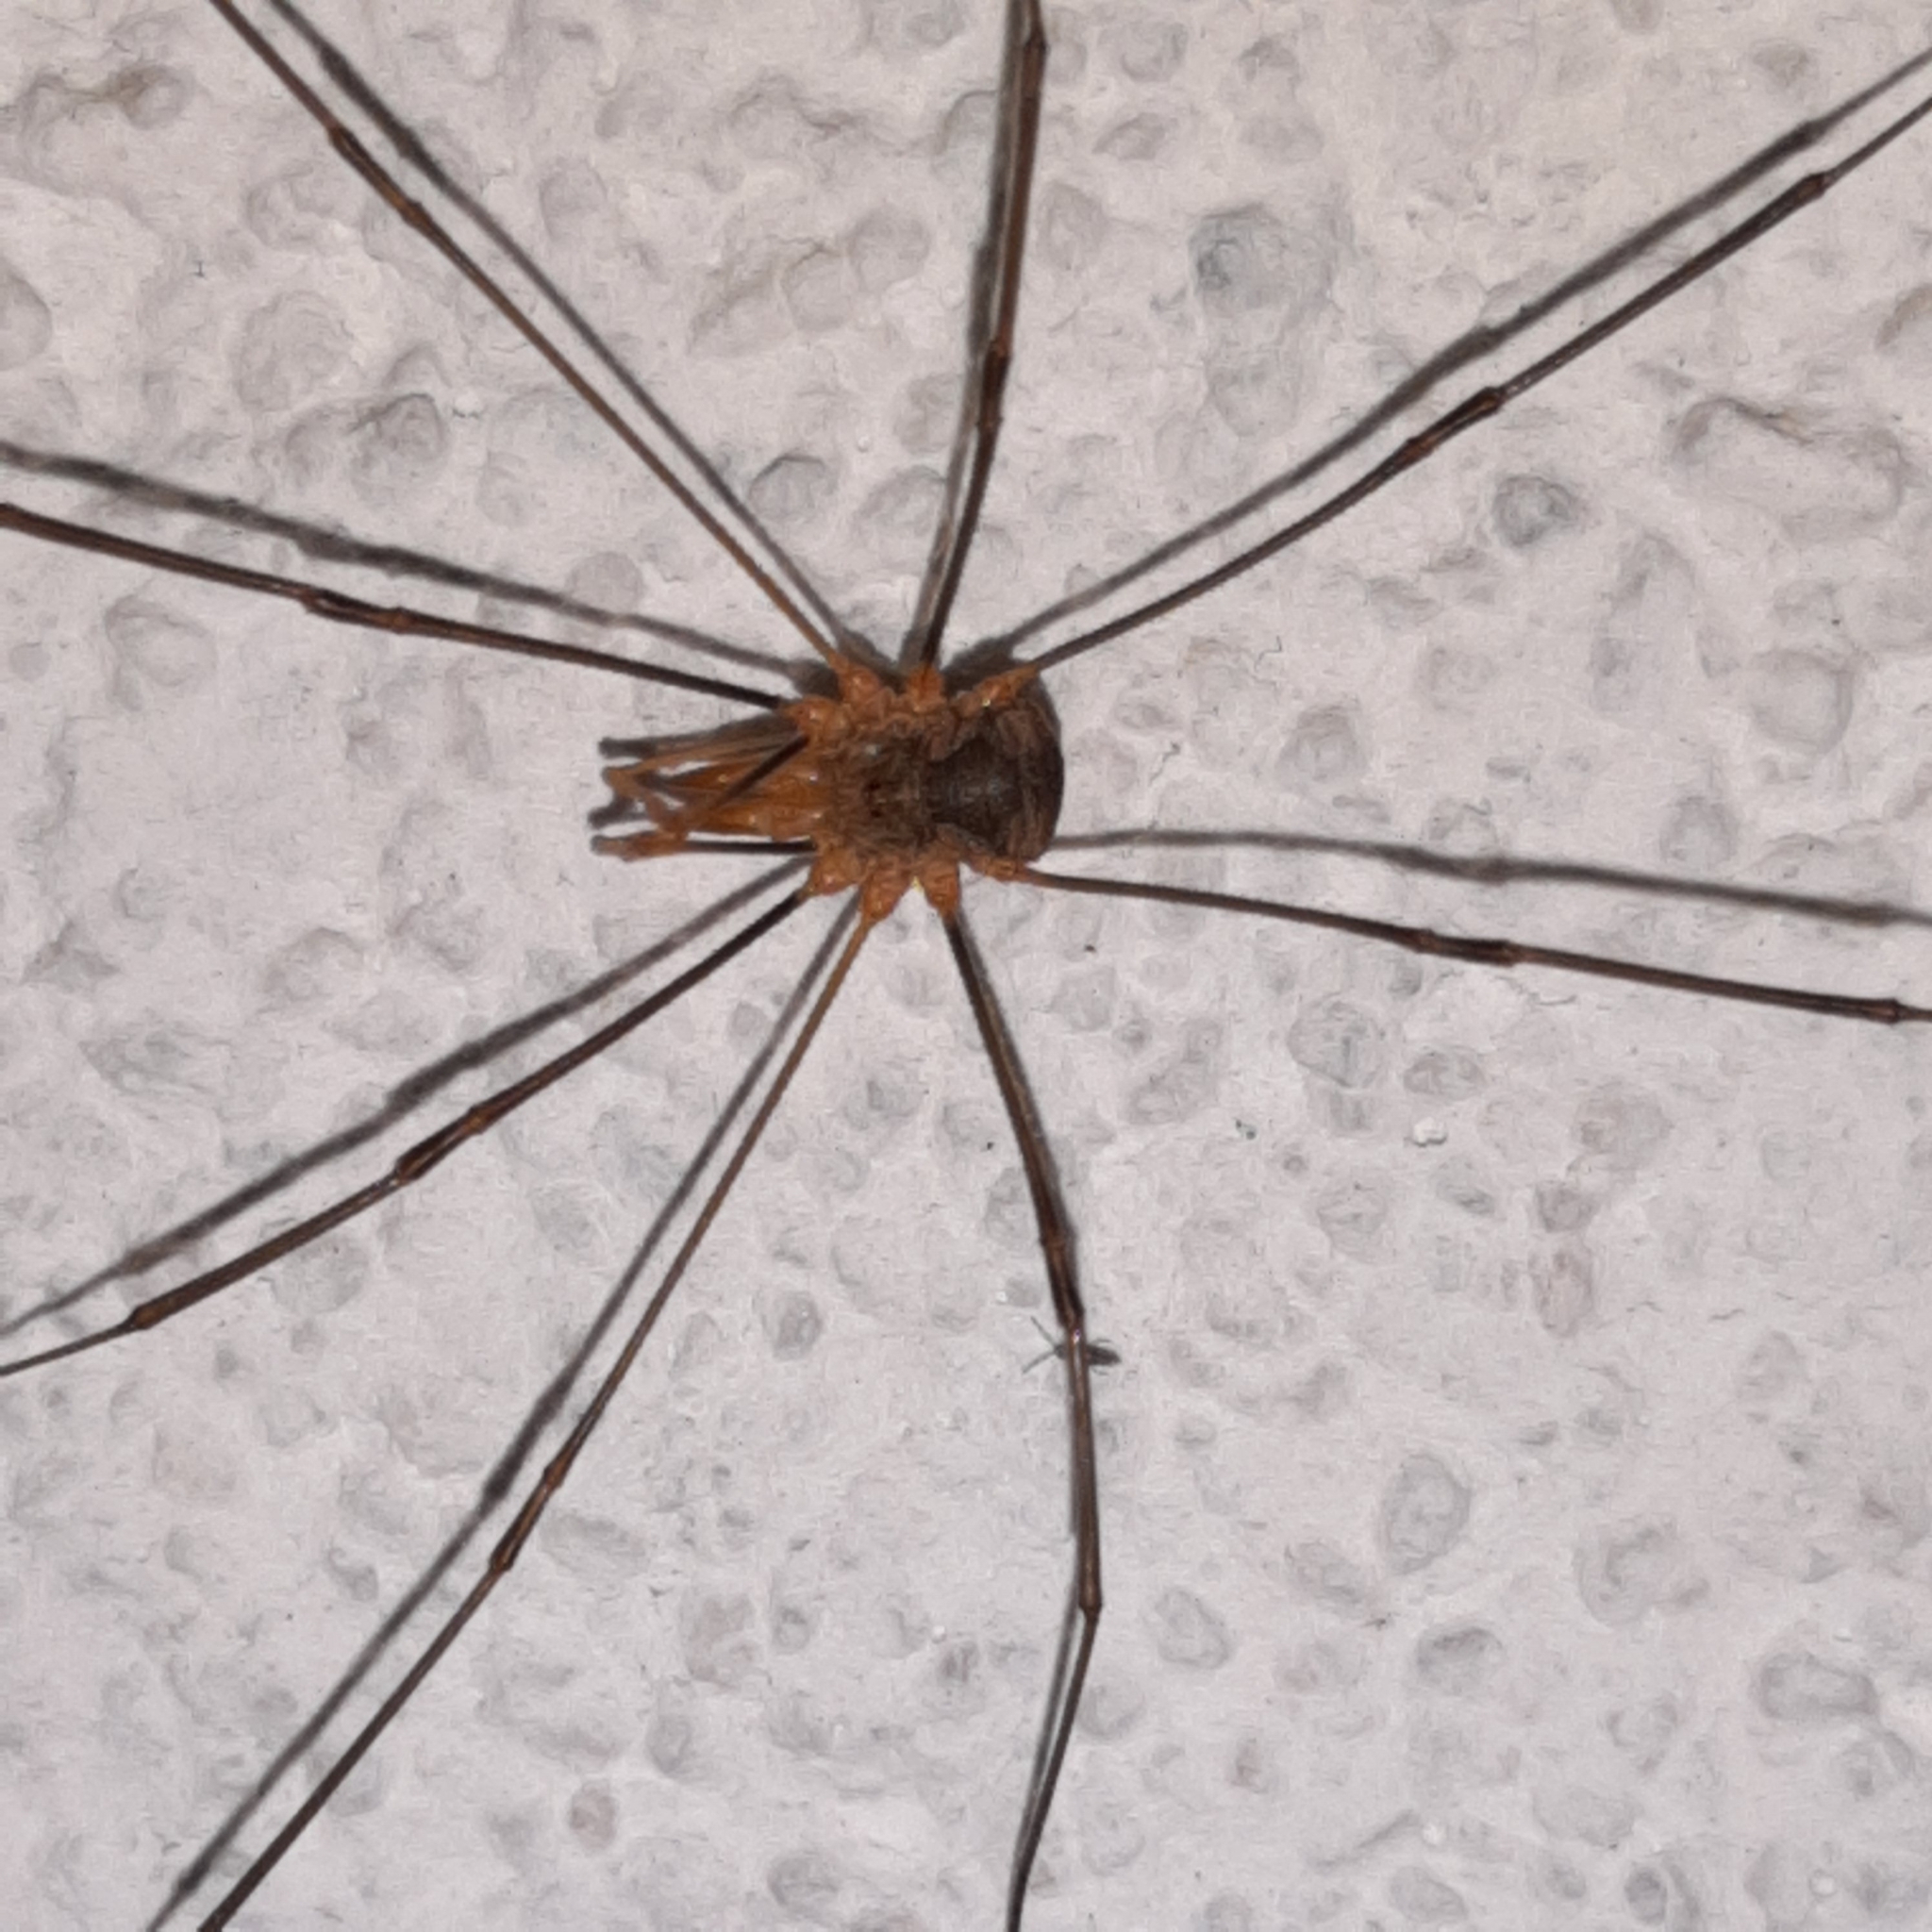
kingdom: Animalia
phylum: Arthropoda
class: Arachnida
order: Opiliones
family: Phalangiidae
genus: Phalangium
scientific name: Phalangium opilio
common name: Daddy longleg
